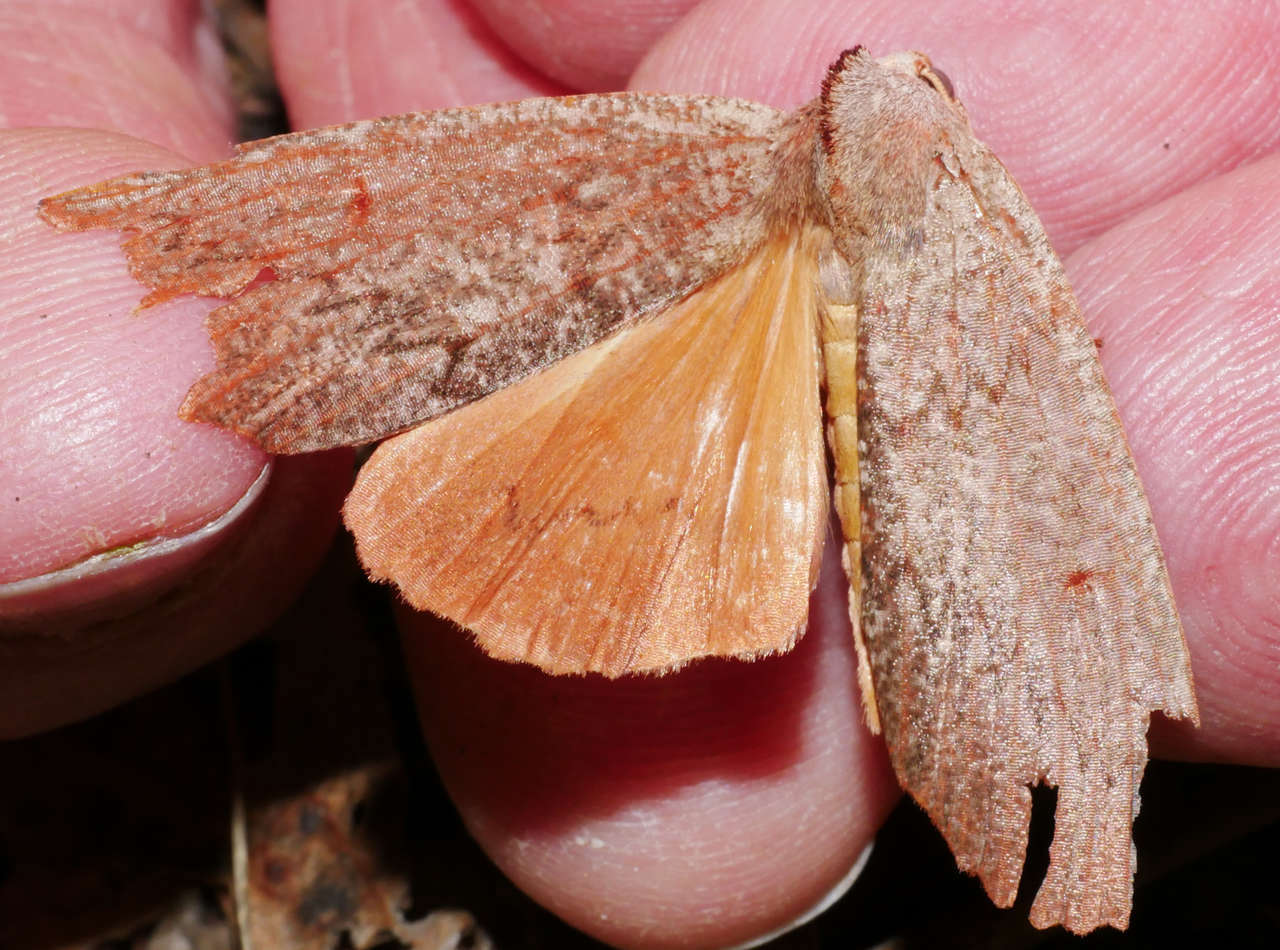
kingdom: Animalia
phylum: Arthropoda
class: Insecta
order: Lepidoptera
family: Geometridae
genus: Fisera
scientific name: Fisera
